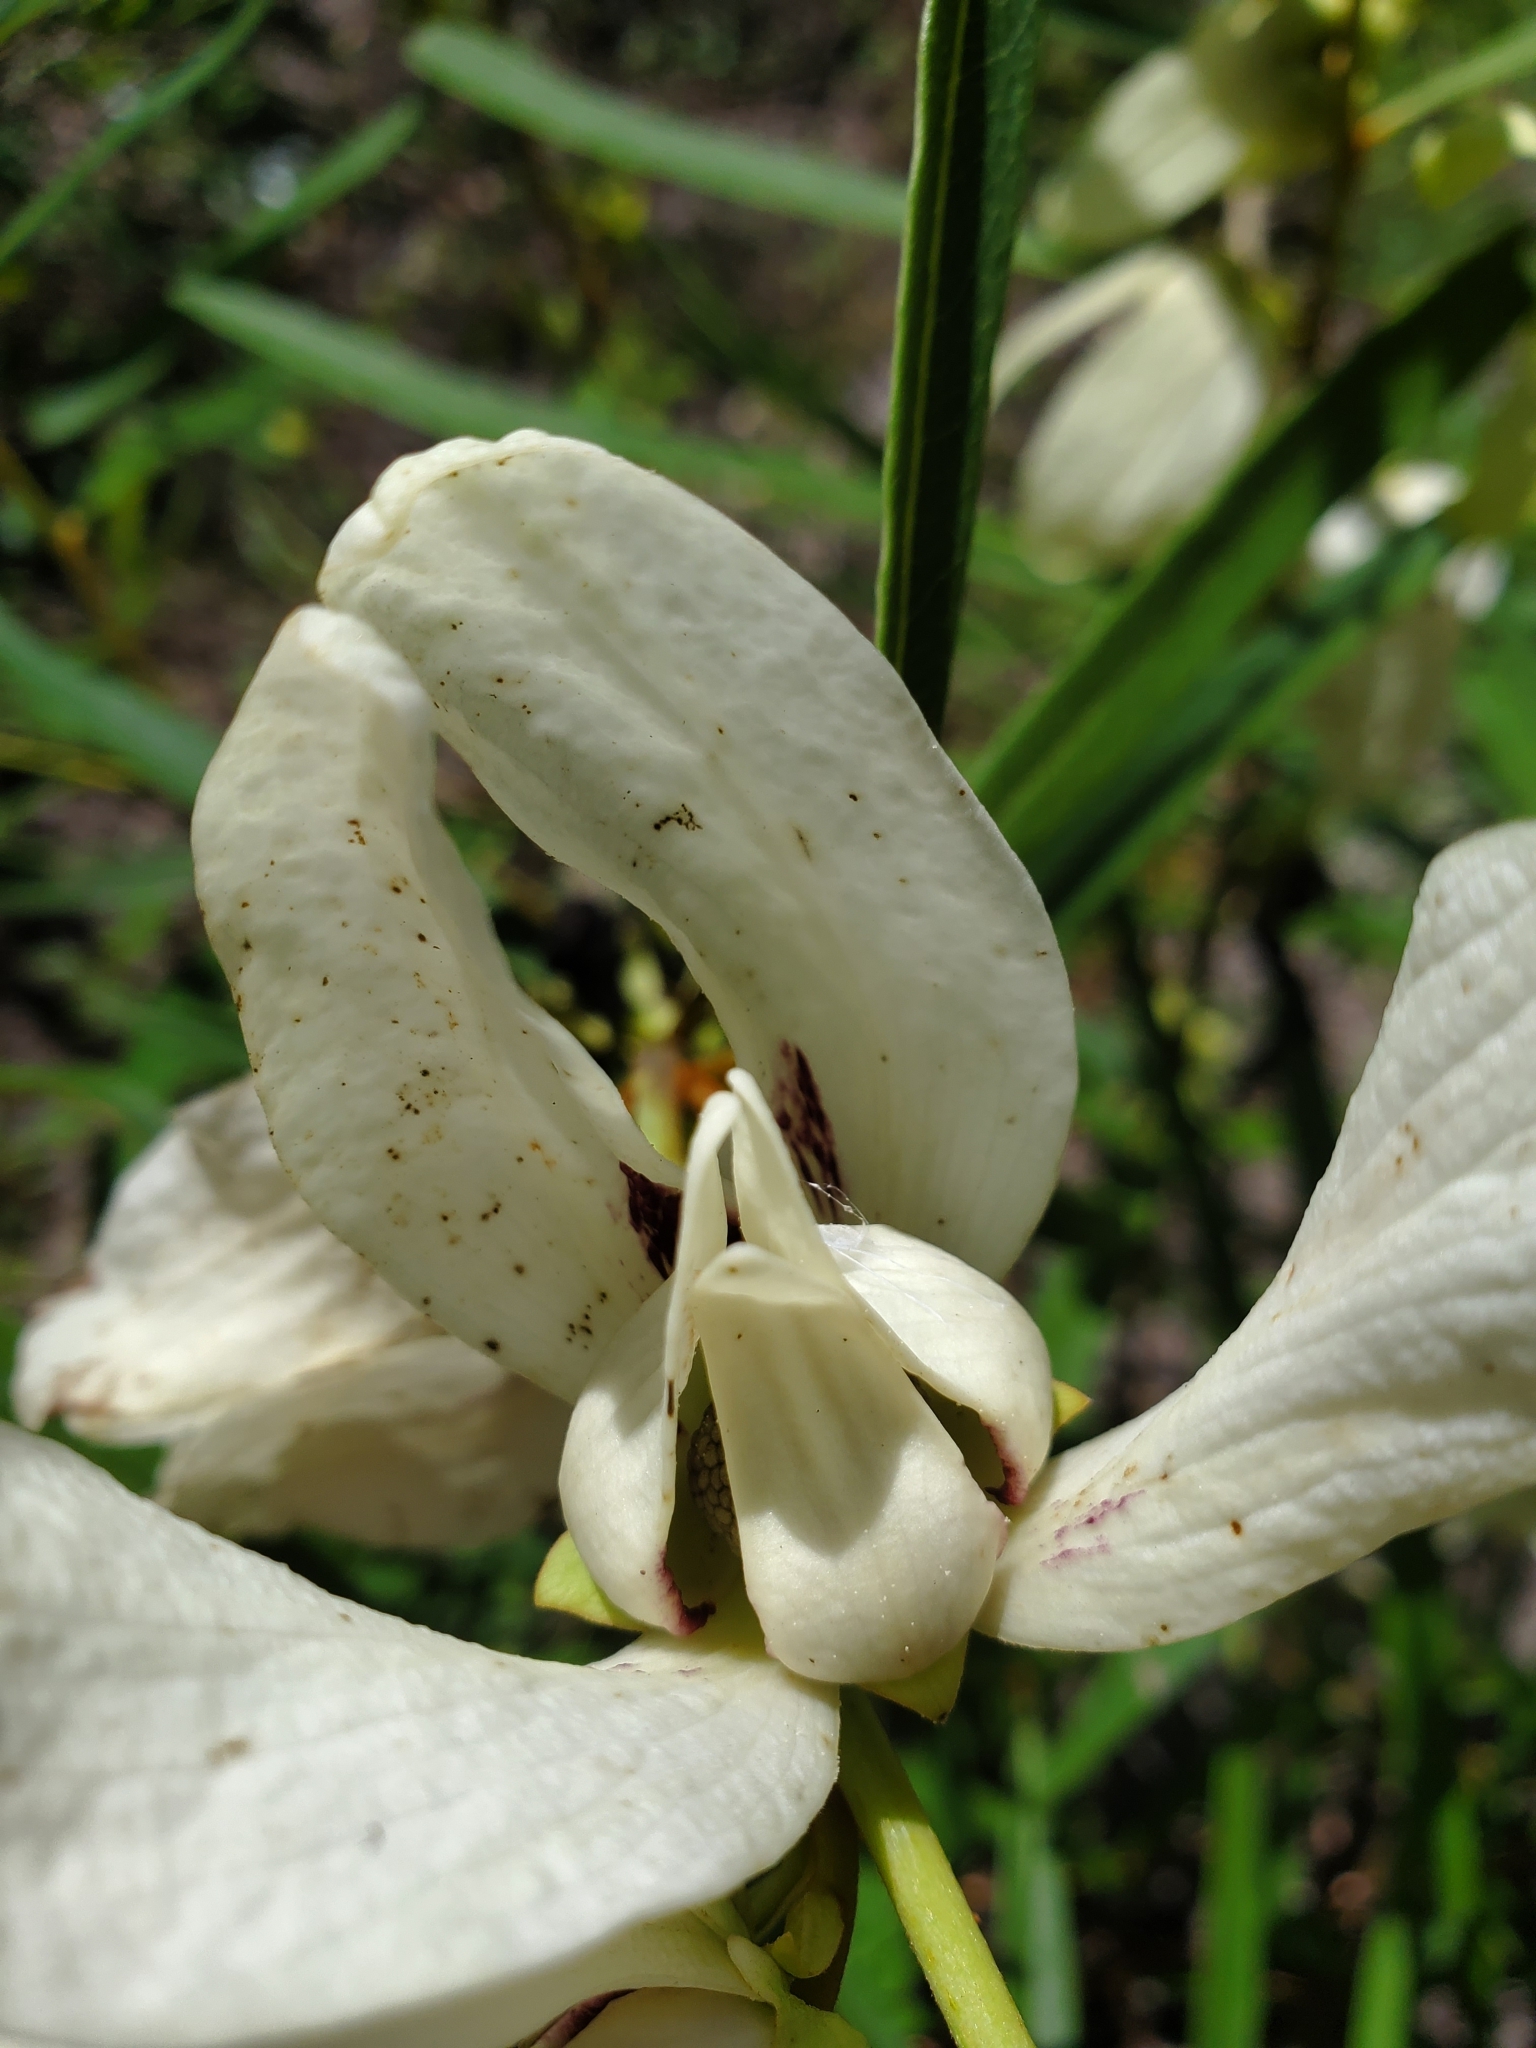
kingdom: Plantae
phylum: Tracheophyta
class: Magnoliopsida
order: Magnoliales
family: Annonaceae
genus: Asimina
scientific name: Asimina longifolia
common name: Polecatbush
